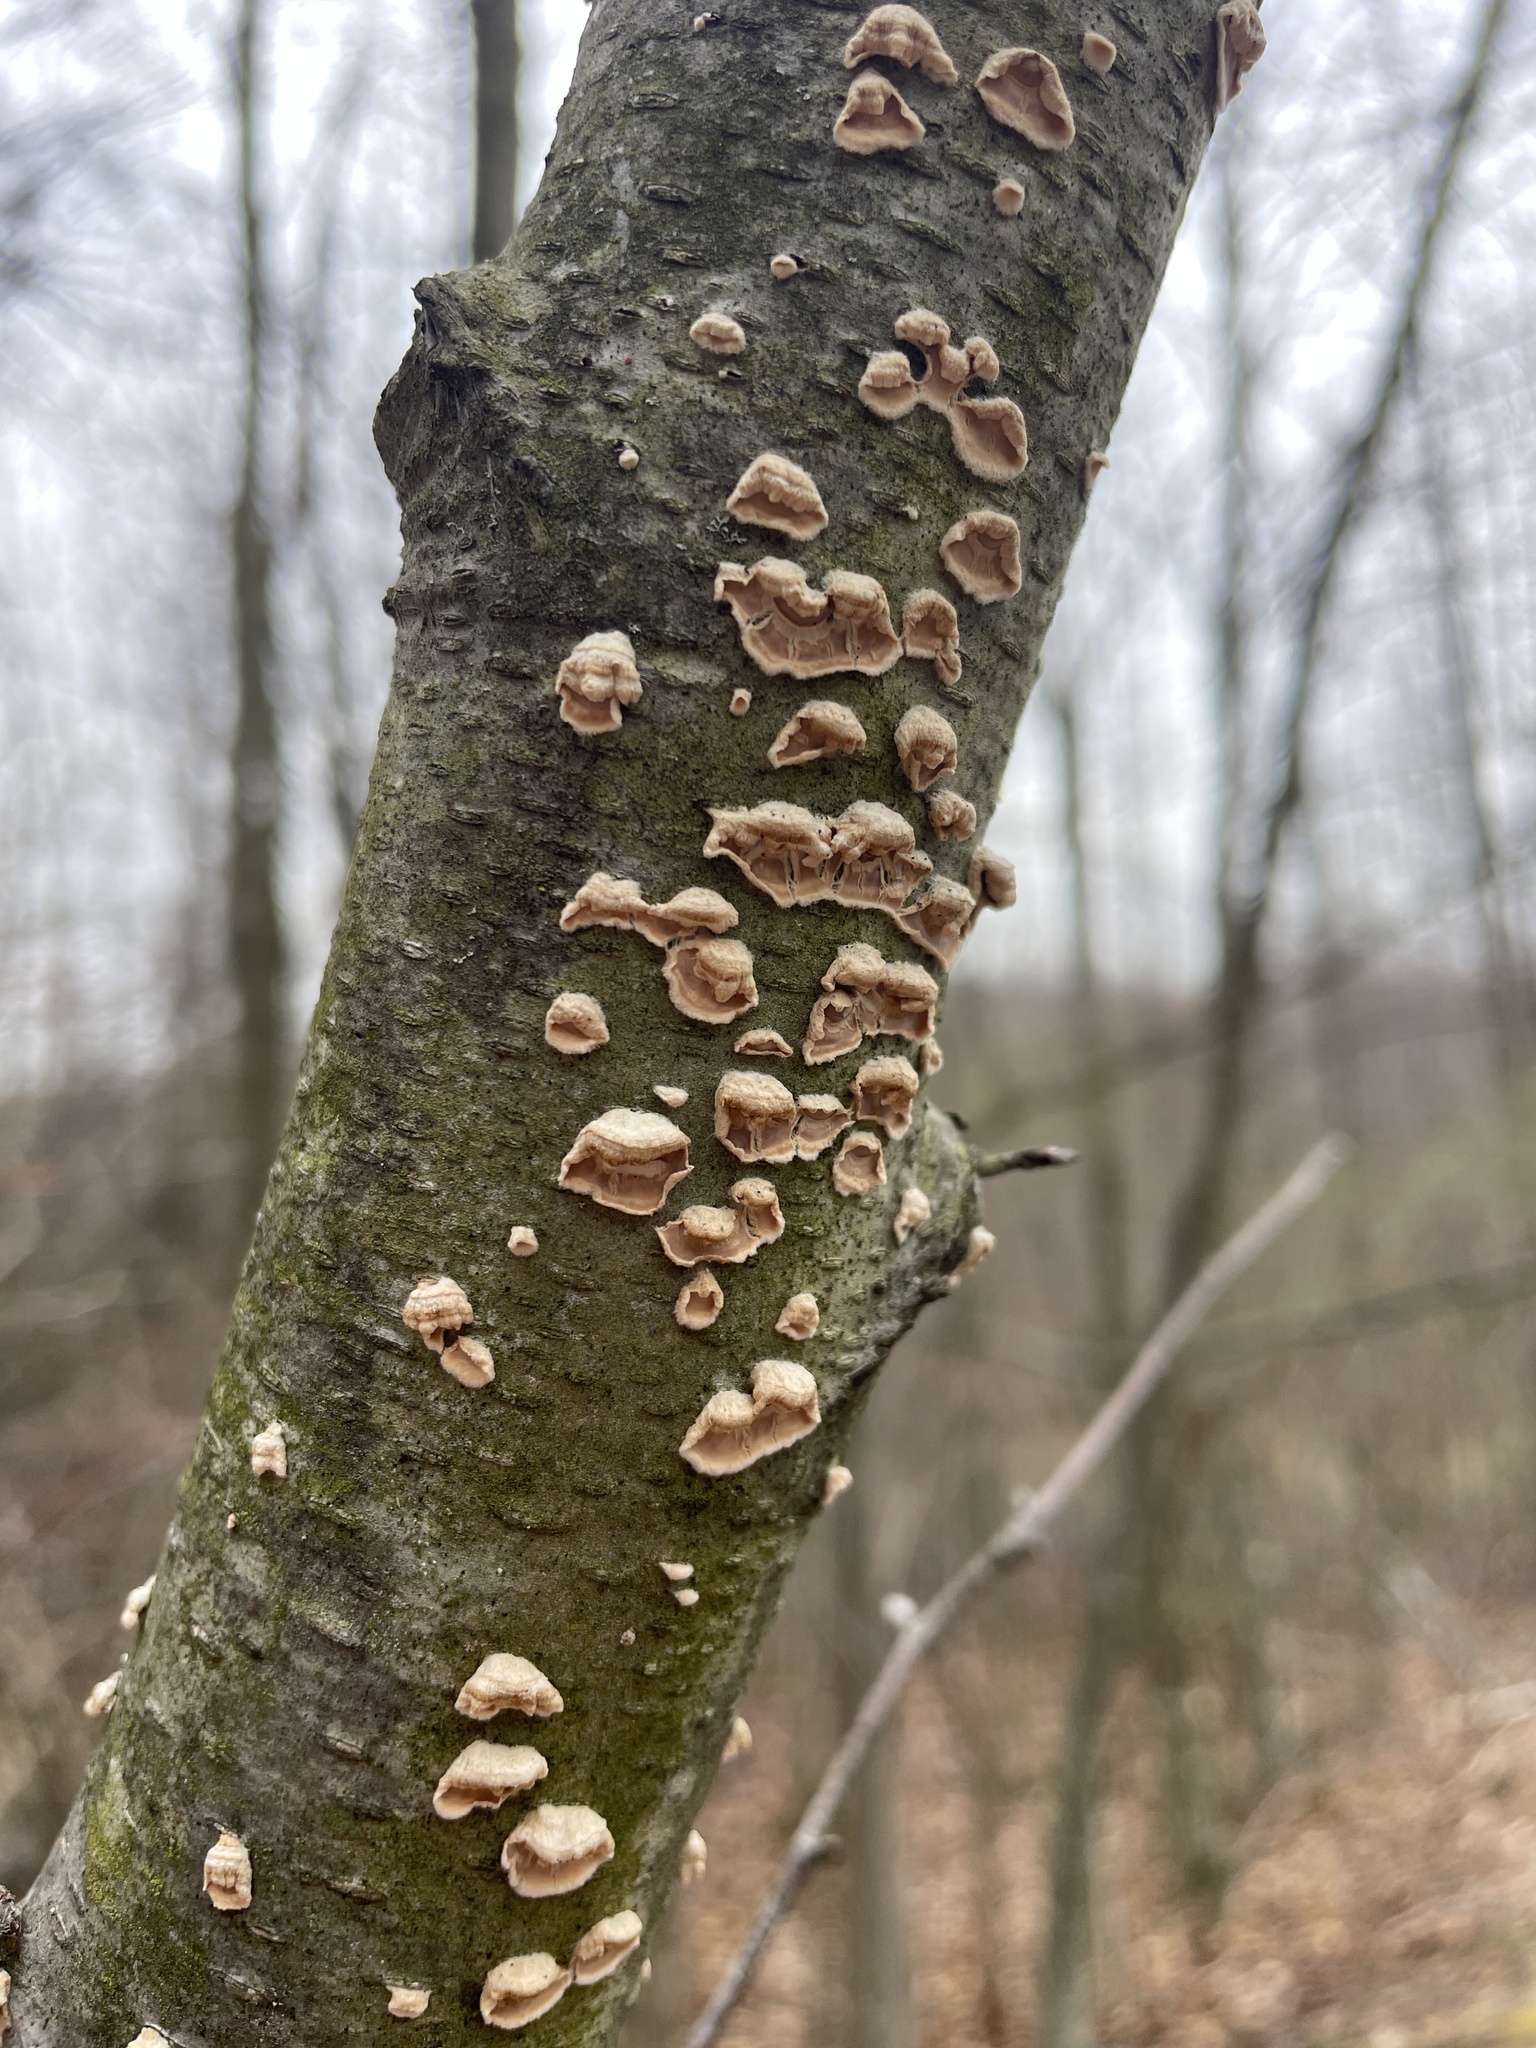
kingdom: Fungi
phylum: Basidiomycota
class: Agaricomycetes
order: Polyporales
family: Irpicaceae
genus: Irpex
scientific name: Irpex lacteus
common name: Milk-white toothed polypore
